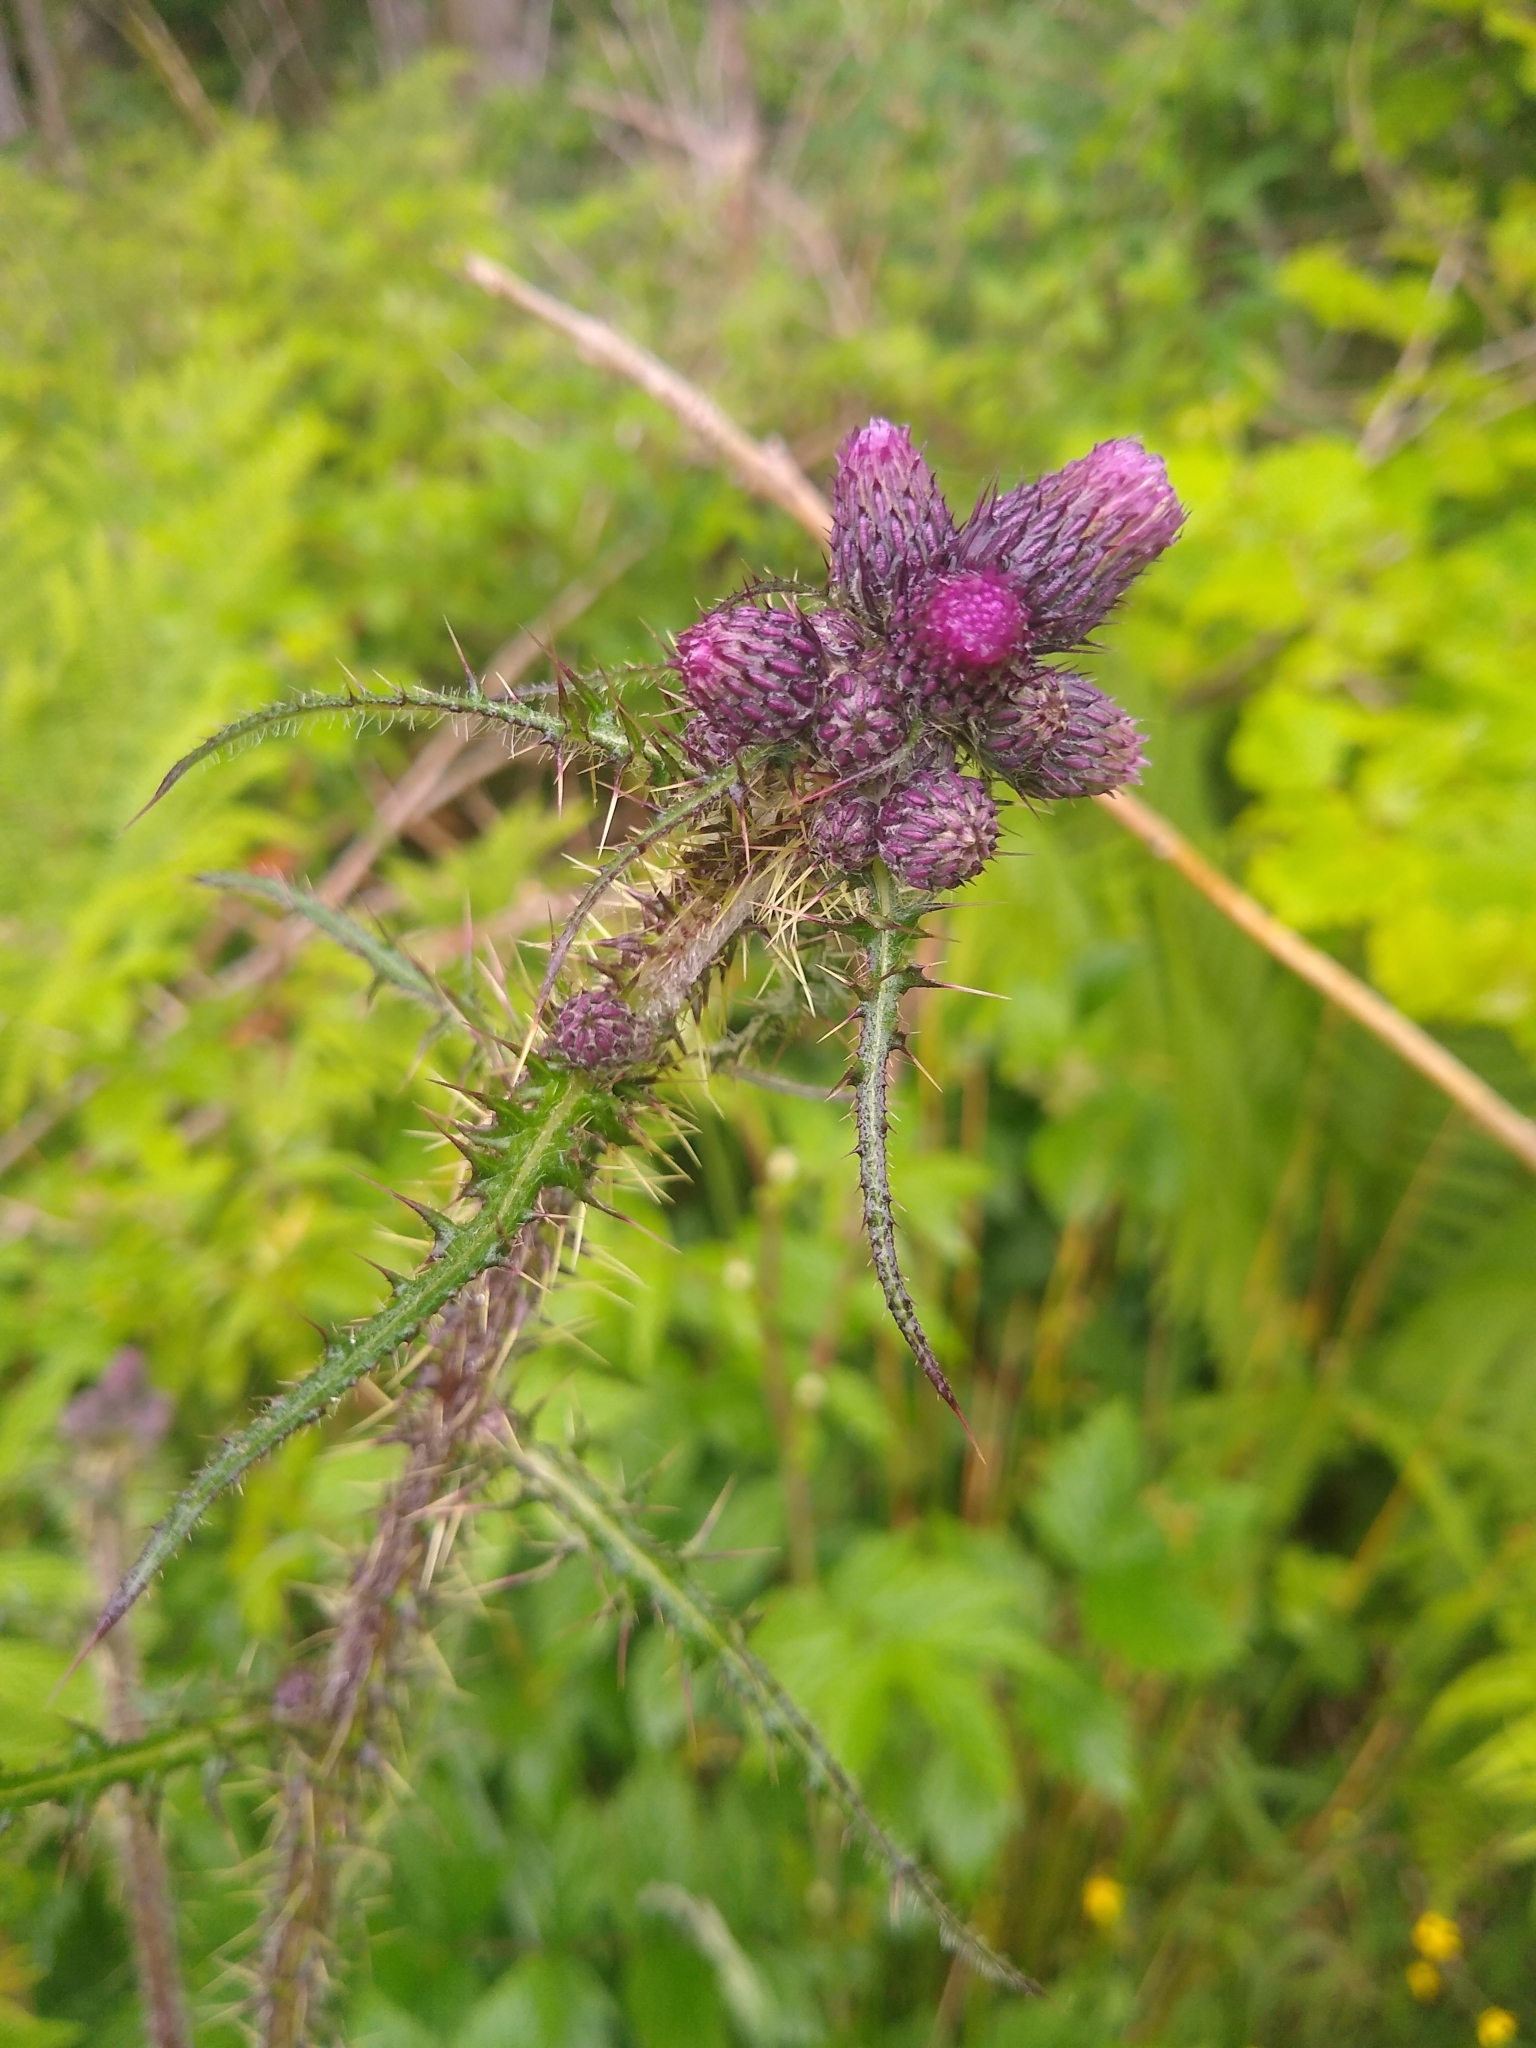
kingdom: Plantae
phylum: Tracheophyta
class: Magnoliopsida
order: Asterales
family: Asteraceae
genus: Cirsium
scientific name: Cirsium palustre
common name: Marsh thistle
